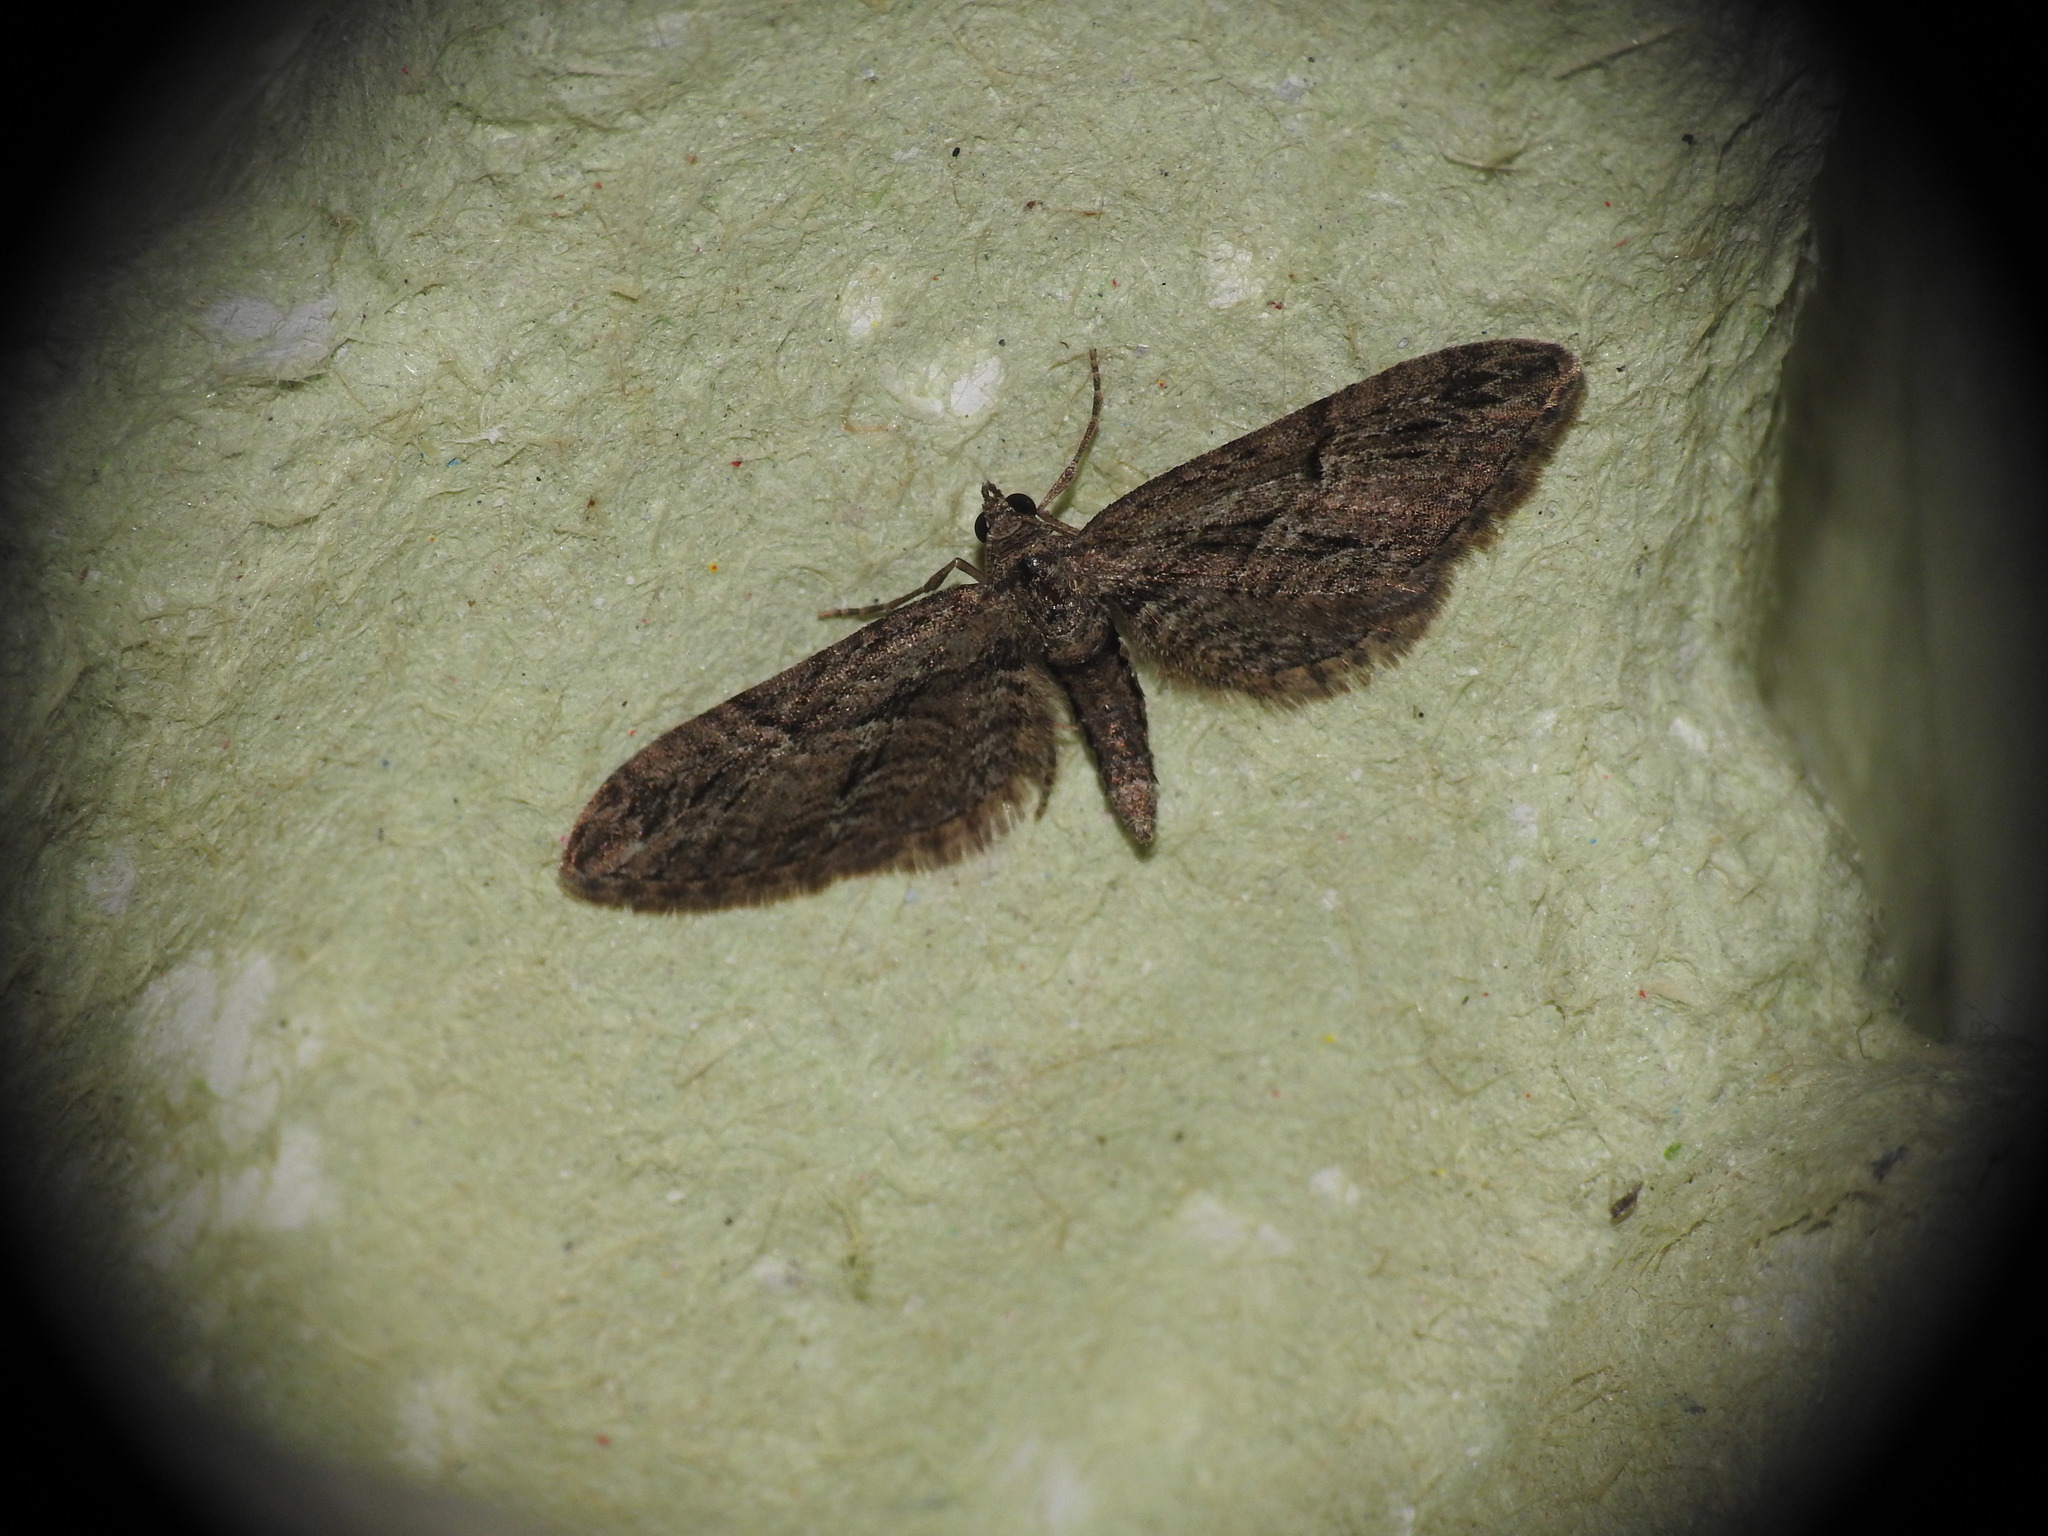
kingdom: Animalia
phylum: Arthropoda
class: Insecta
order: Lepidoptera
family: Geometridae
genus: Eupithecia
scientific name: Eupithecia oxycedrata
